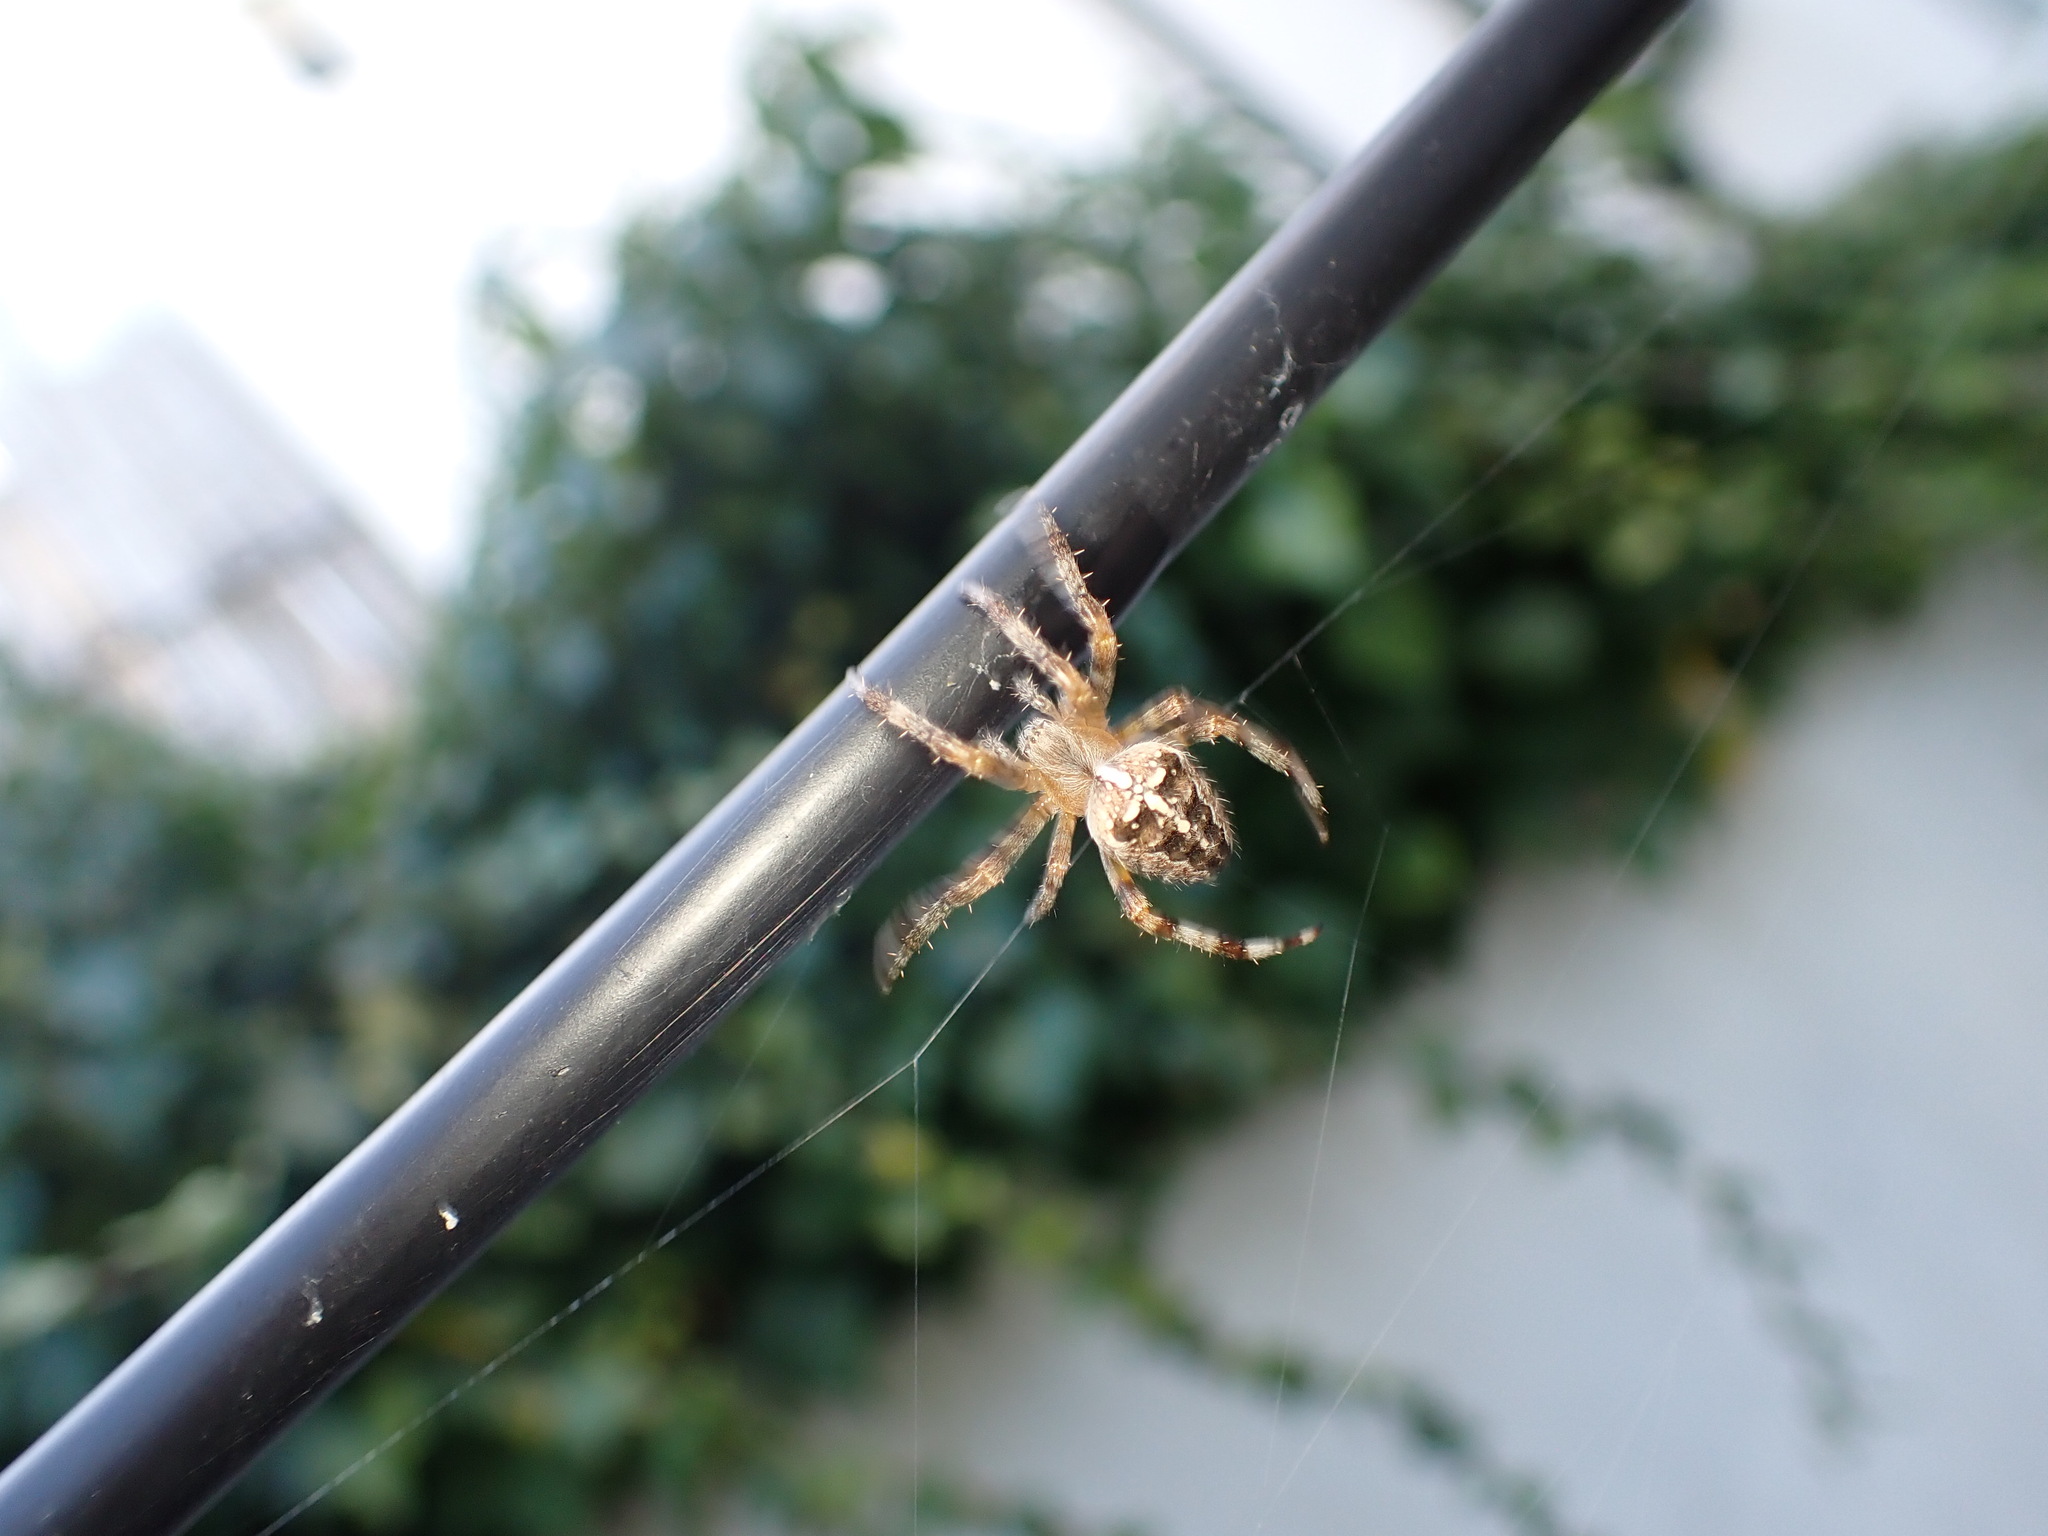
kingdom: Animalia
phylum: Arthropoda
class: Arachnida
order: Araneae
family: Araneidae
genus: Araneus
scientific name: Araneus diadematus
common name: Cross orbweaver
